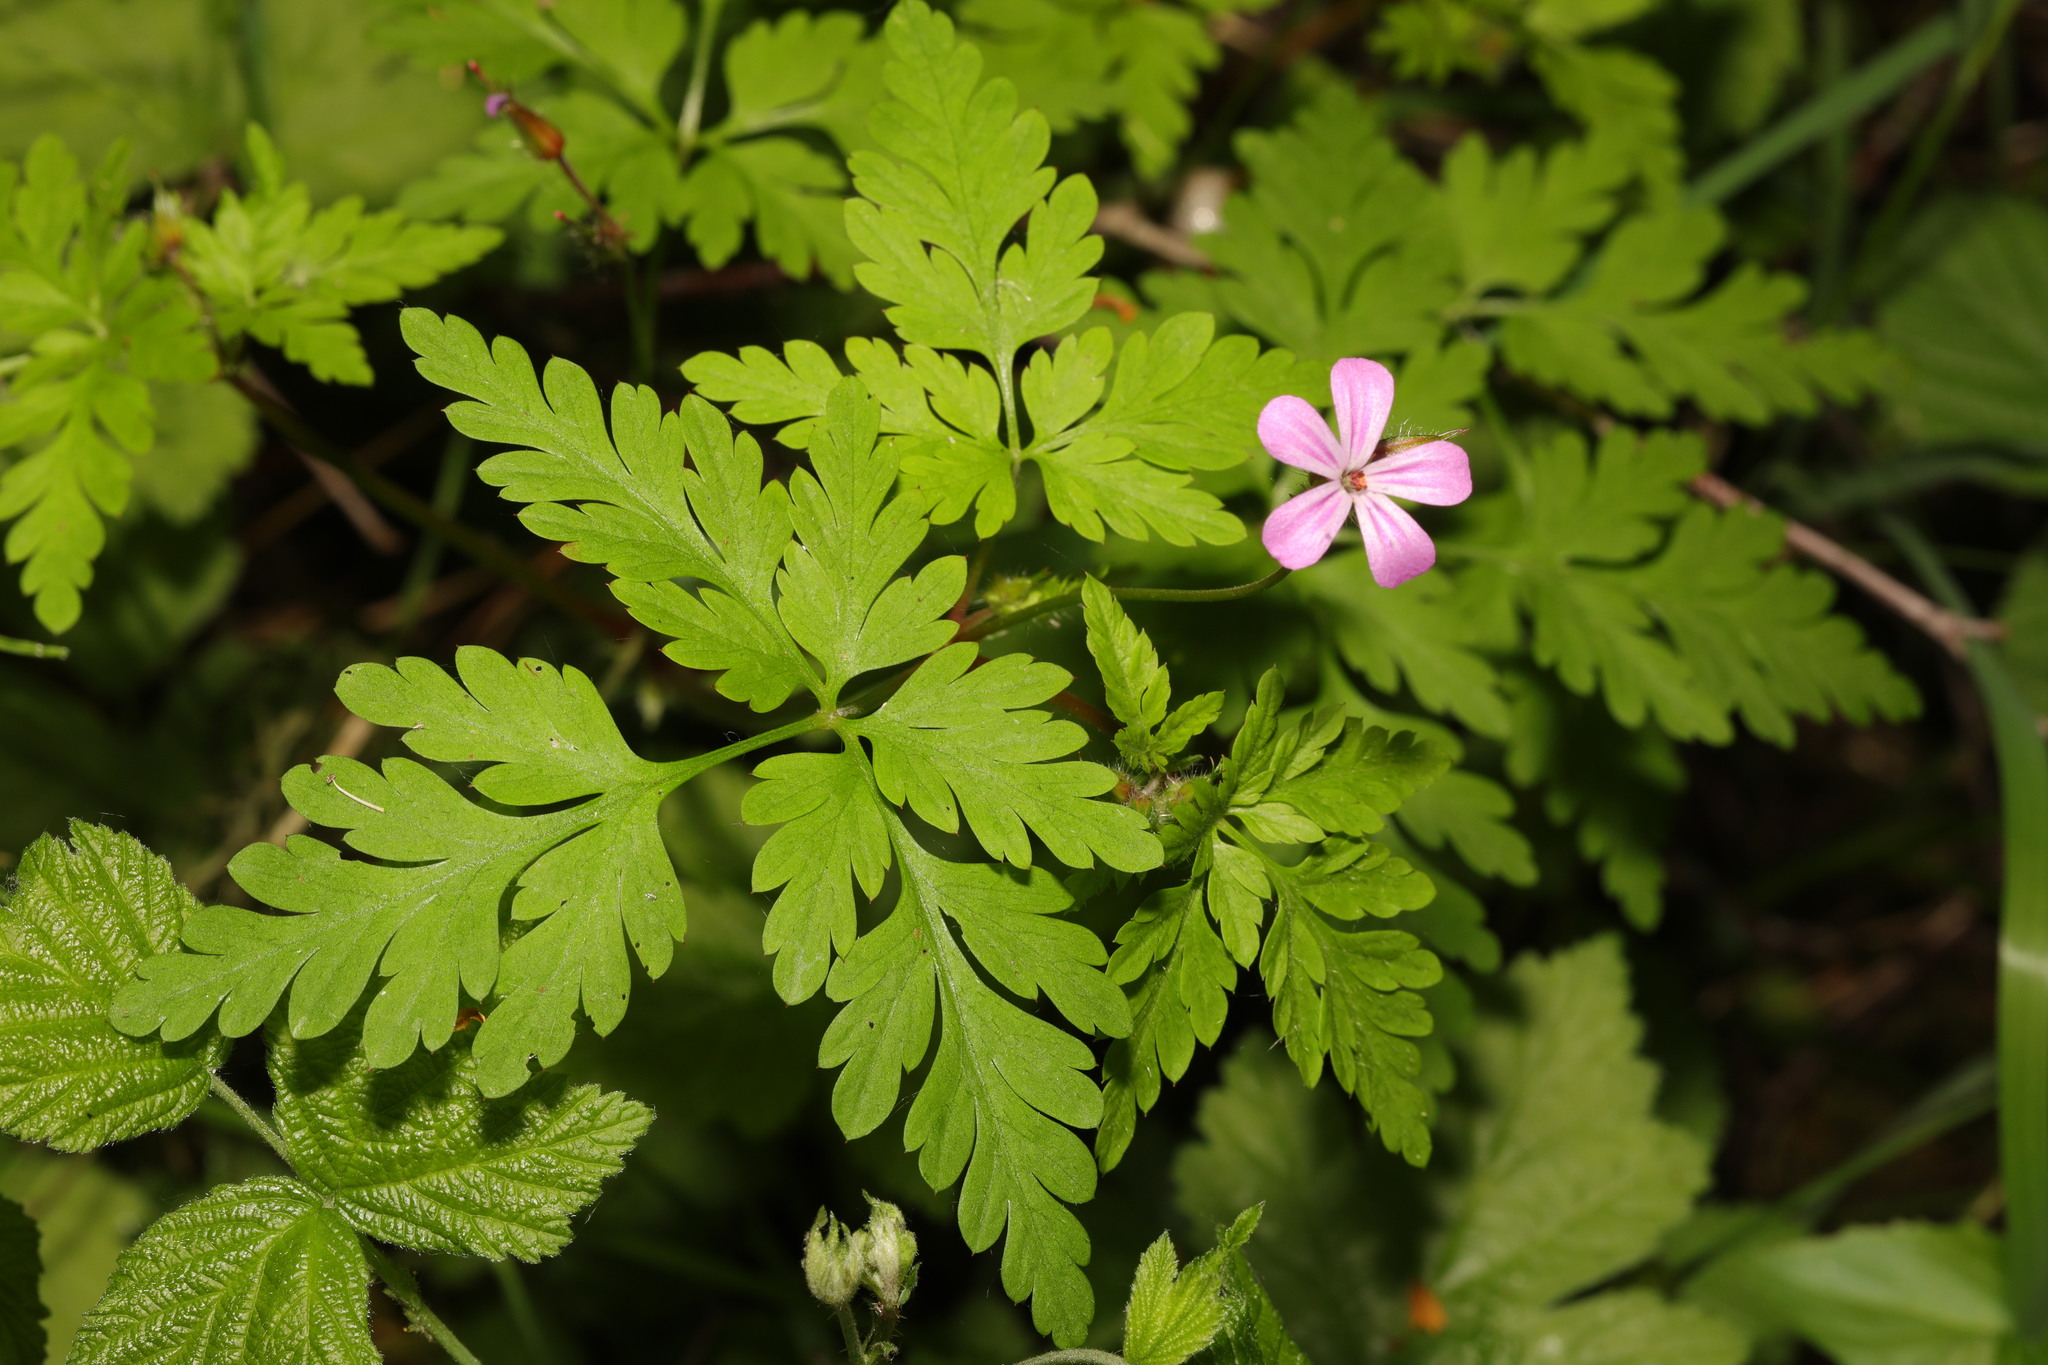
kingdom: Plantae
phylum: Tracheophyta
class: Magnoliopsida
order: Geraniales
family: Geraniaceae
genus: Geranium
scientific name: Geranium robertianum
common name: Herb-robert
